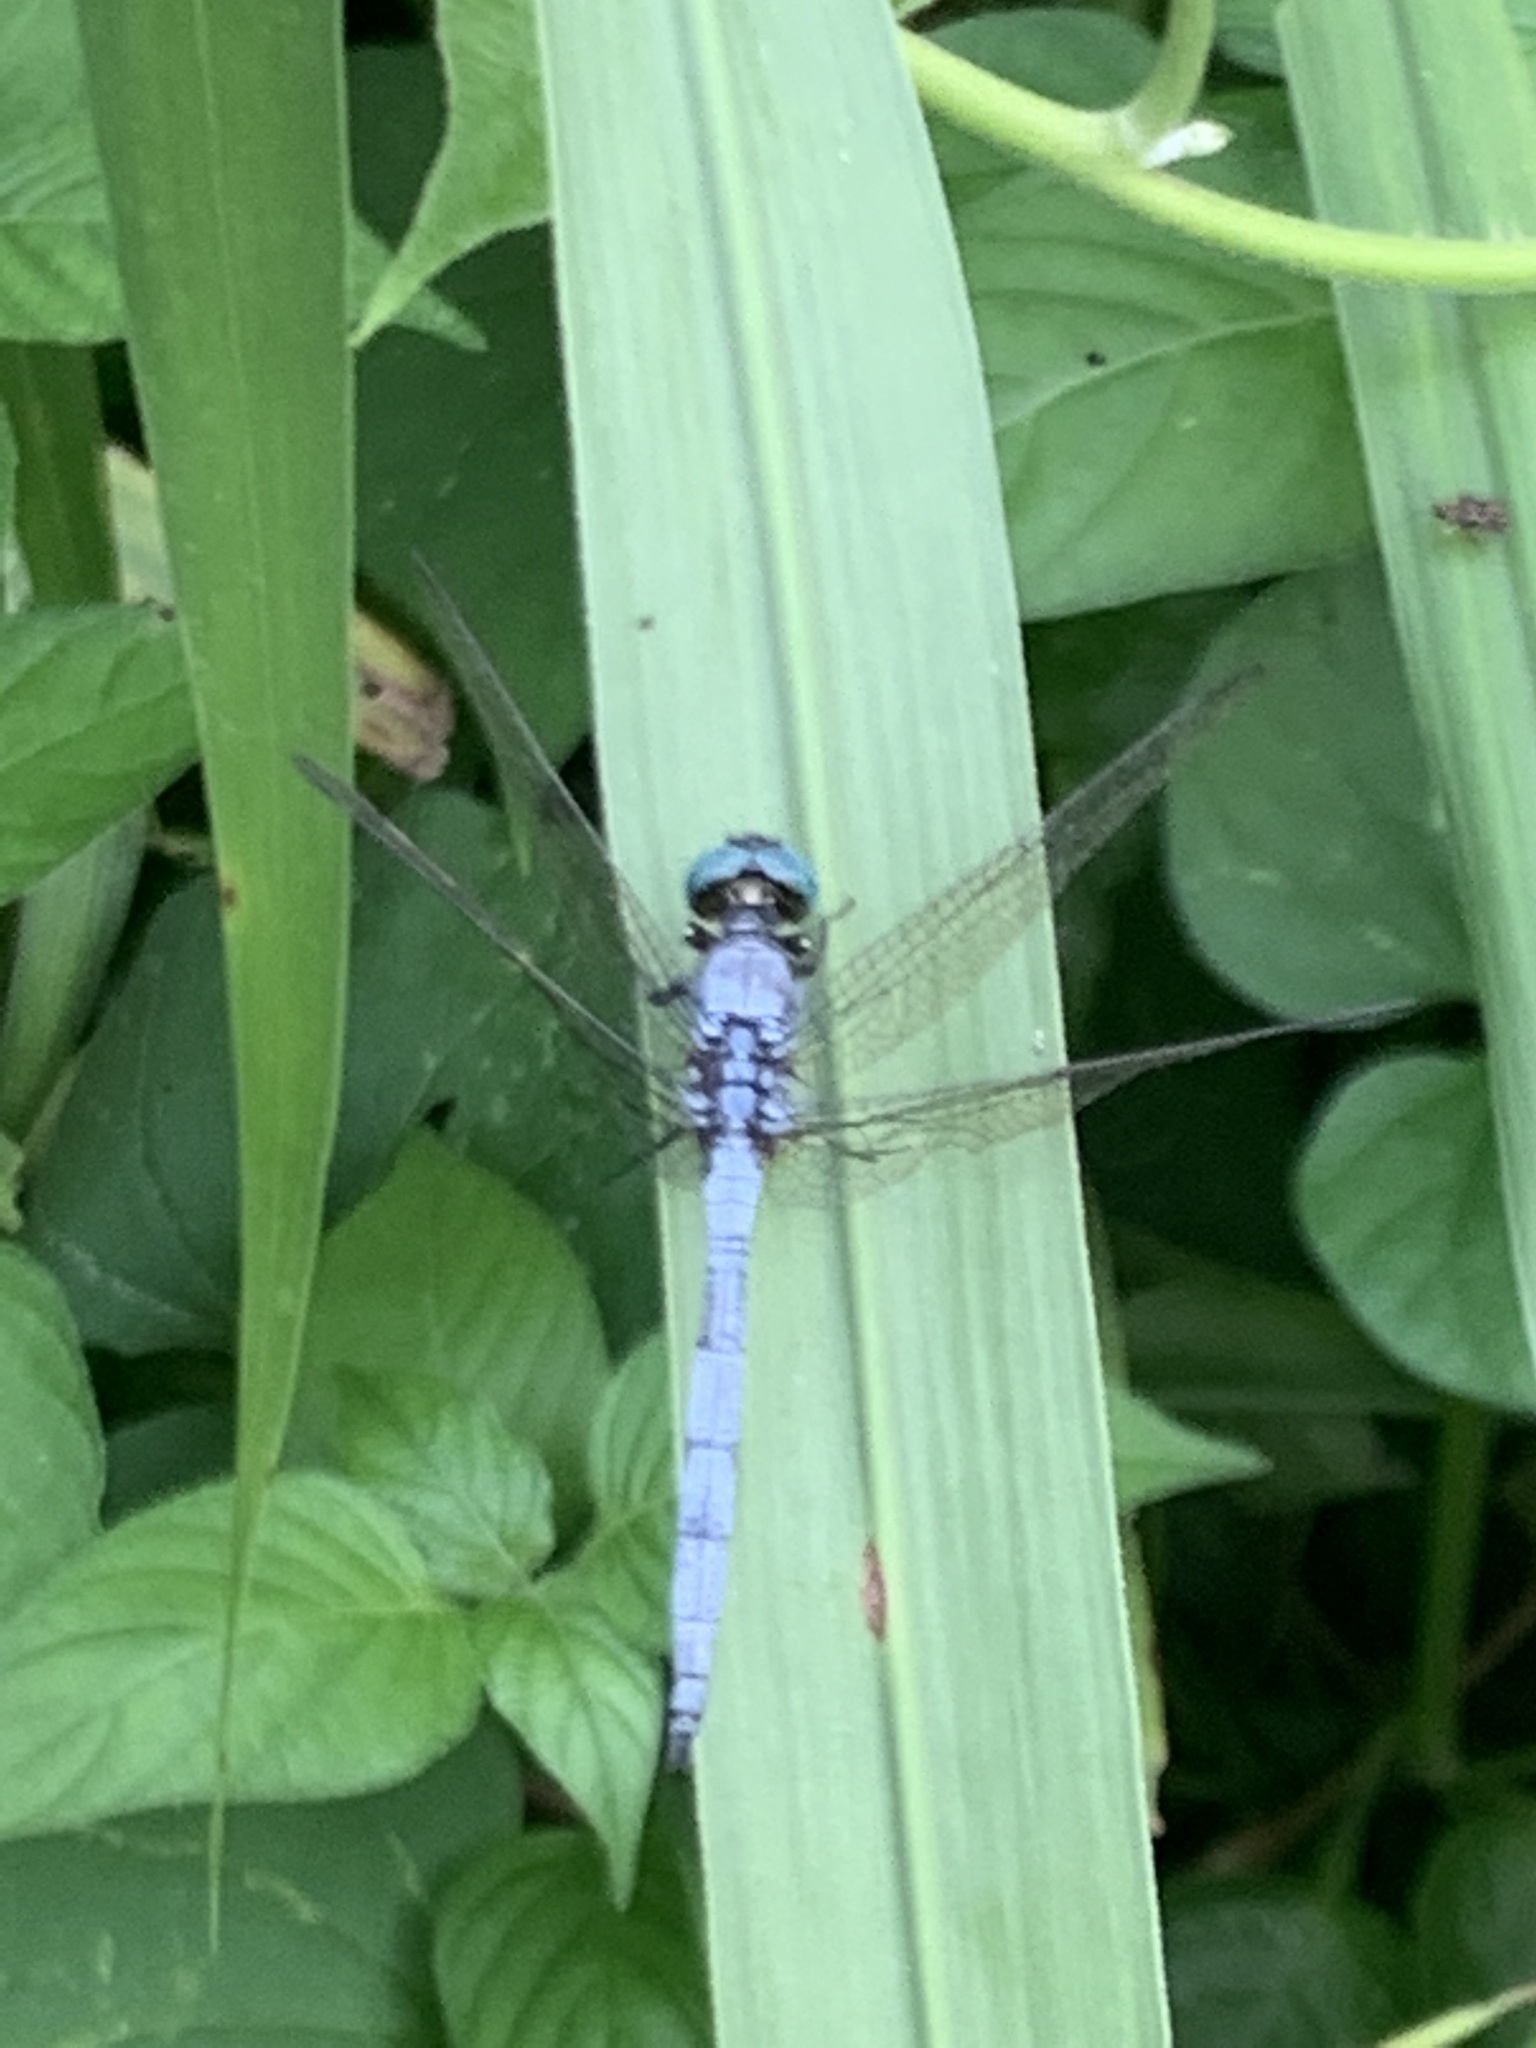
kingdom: Animalia
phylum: Arthropoda
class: Insecta
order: Odonata
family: Libellulidae
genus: Orthetrum
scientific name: Orthetrum luzonicum
